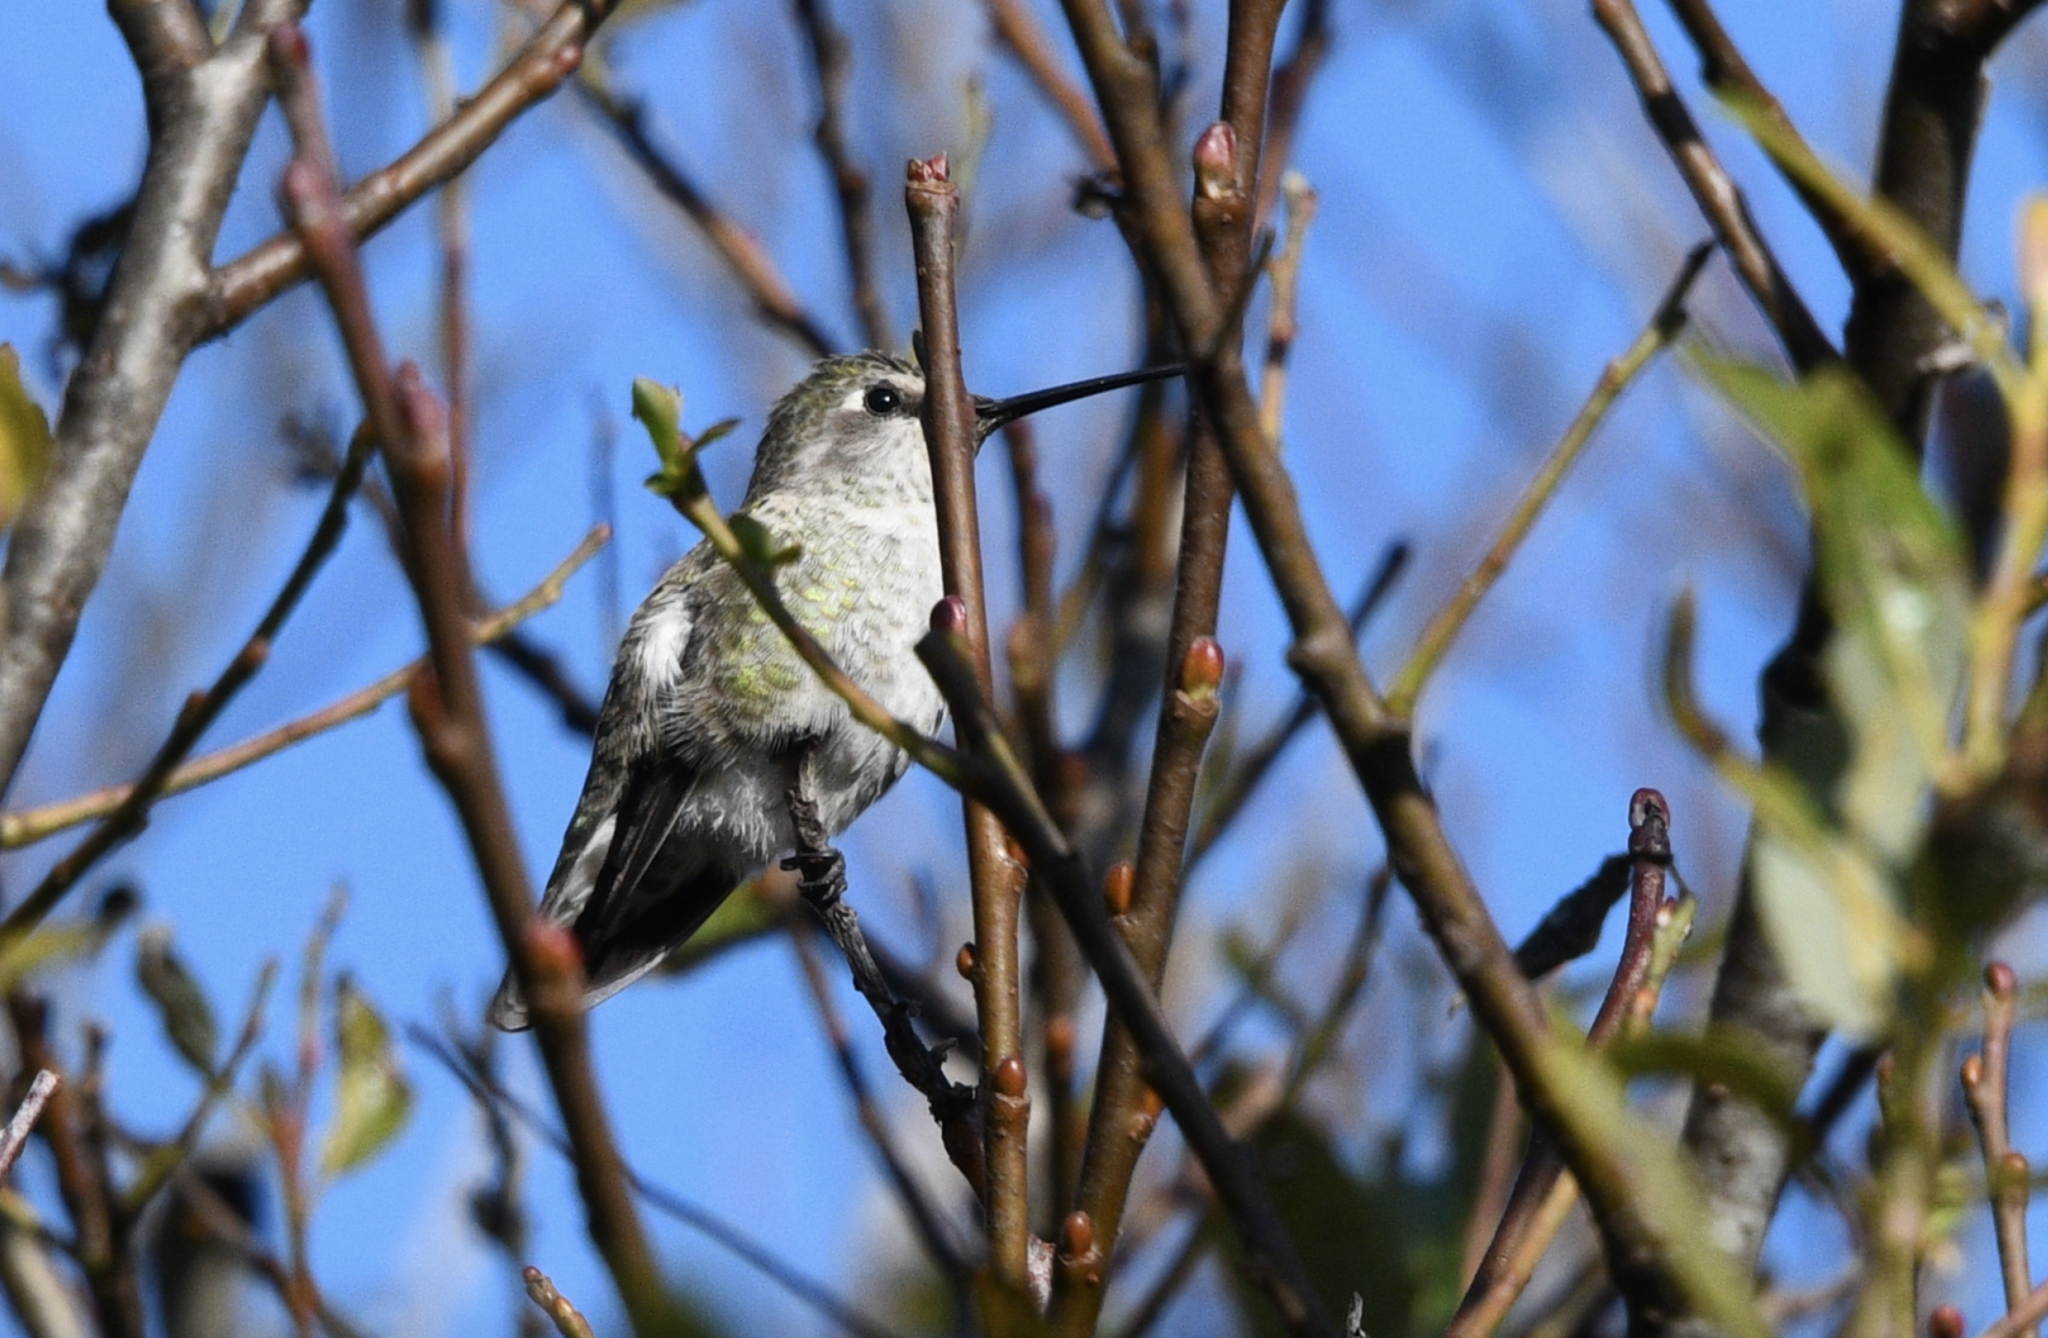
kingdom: Animalia
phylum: Chordata
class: Aves
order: Apodiformes
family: Trochilidae
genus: Calypte
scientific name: Calypte anna
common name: Anna's hummingbird
